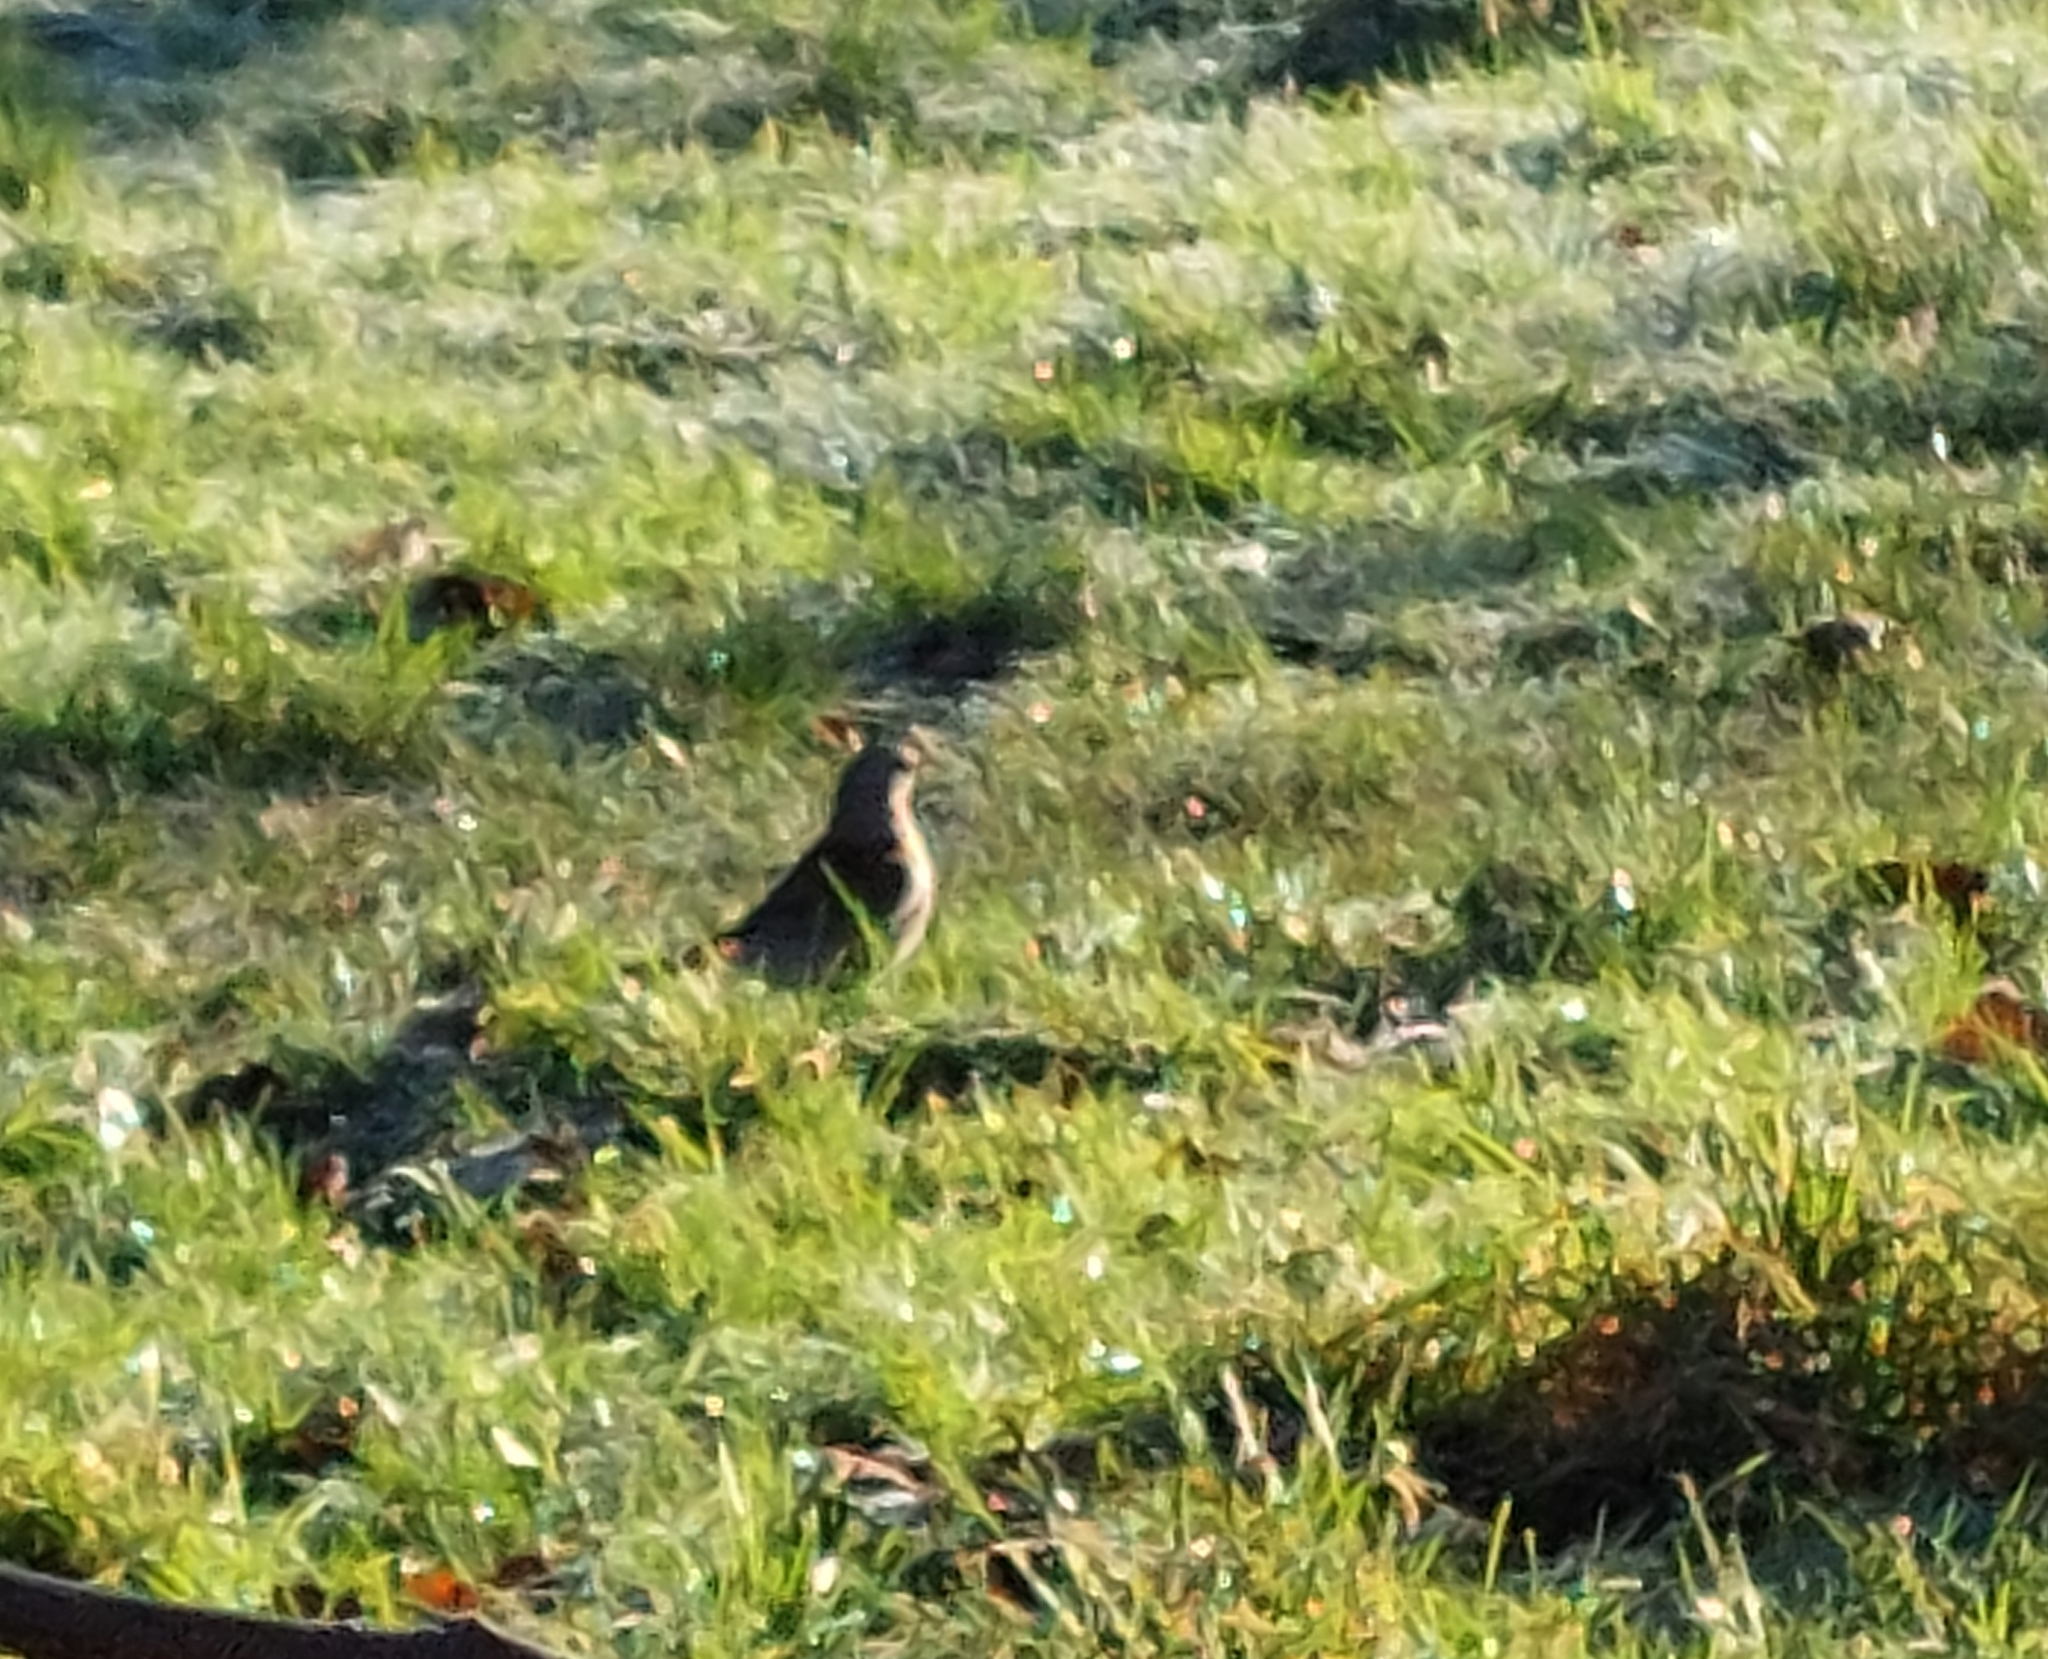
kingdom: Animalia
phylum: Chordata
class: Aves
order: Passeriformes
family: Turdidae
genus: Turdus
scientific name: Turdus pilaris
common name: Fieldfare
